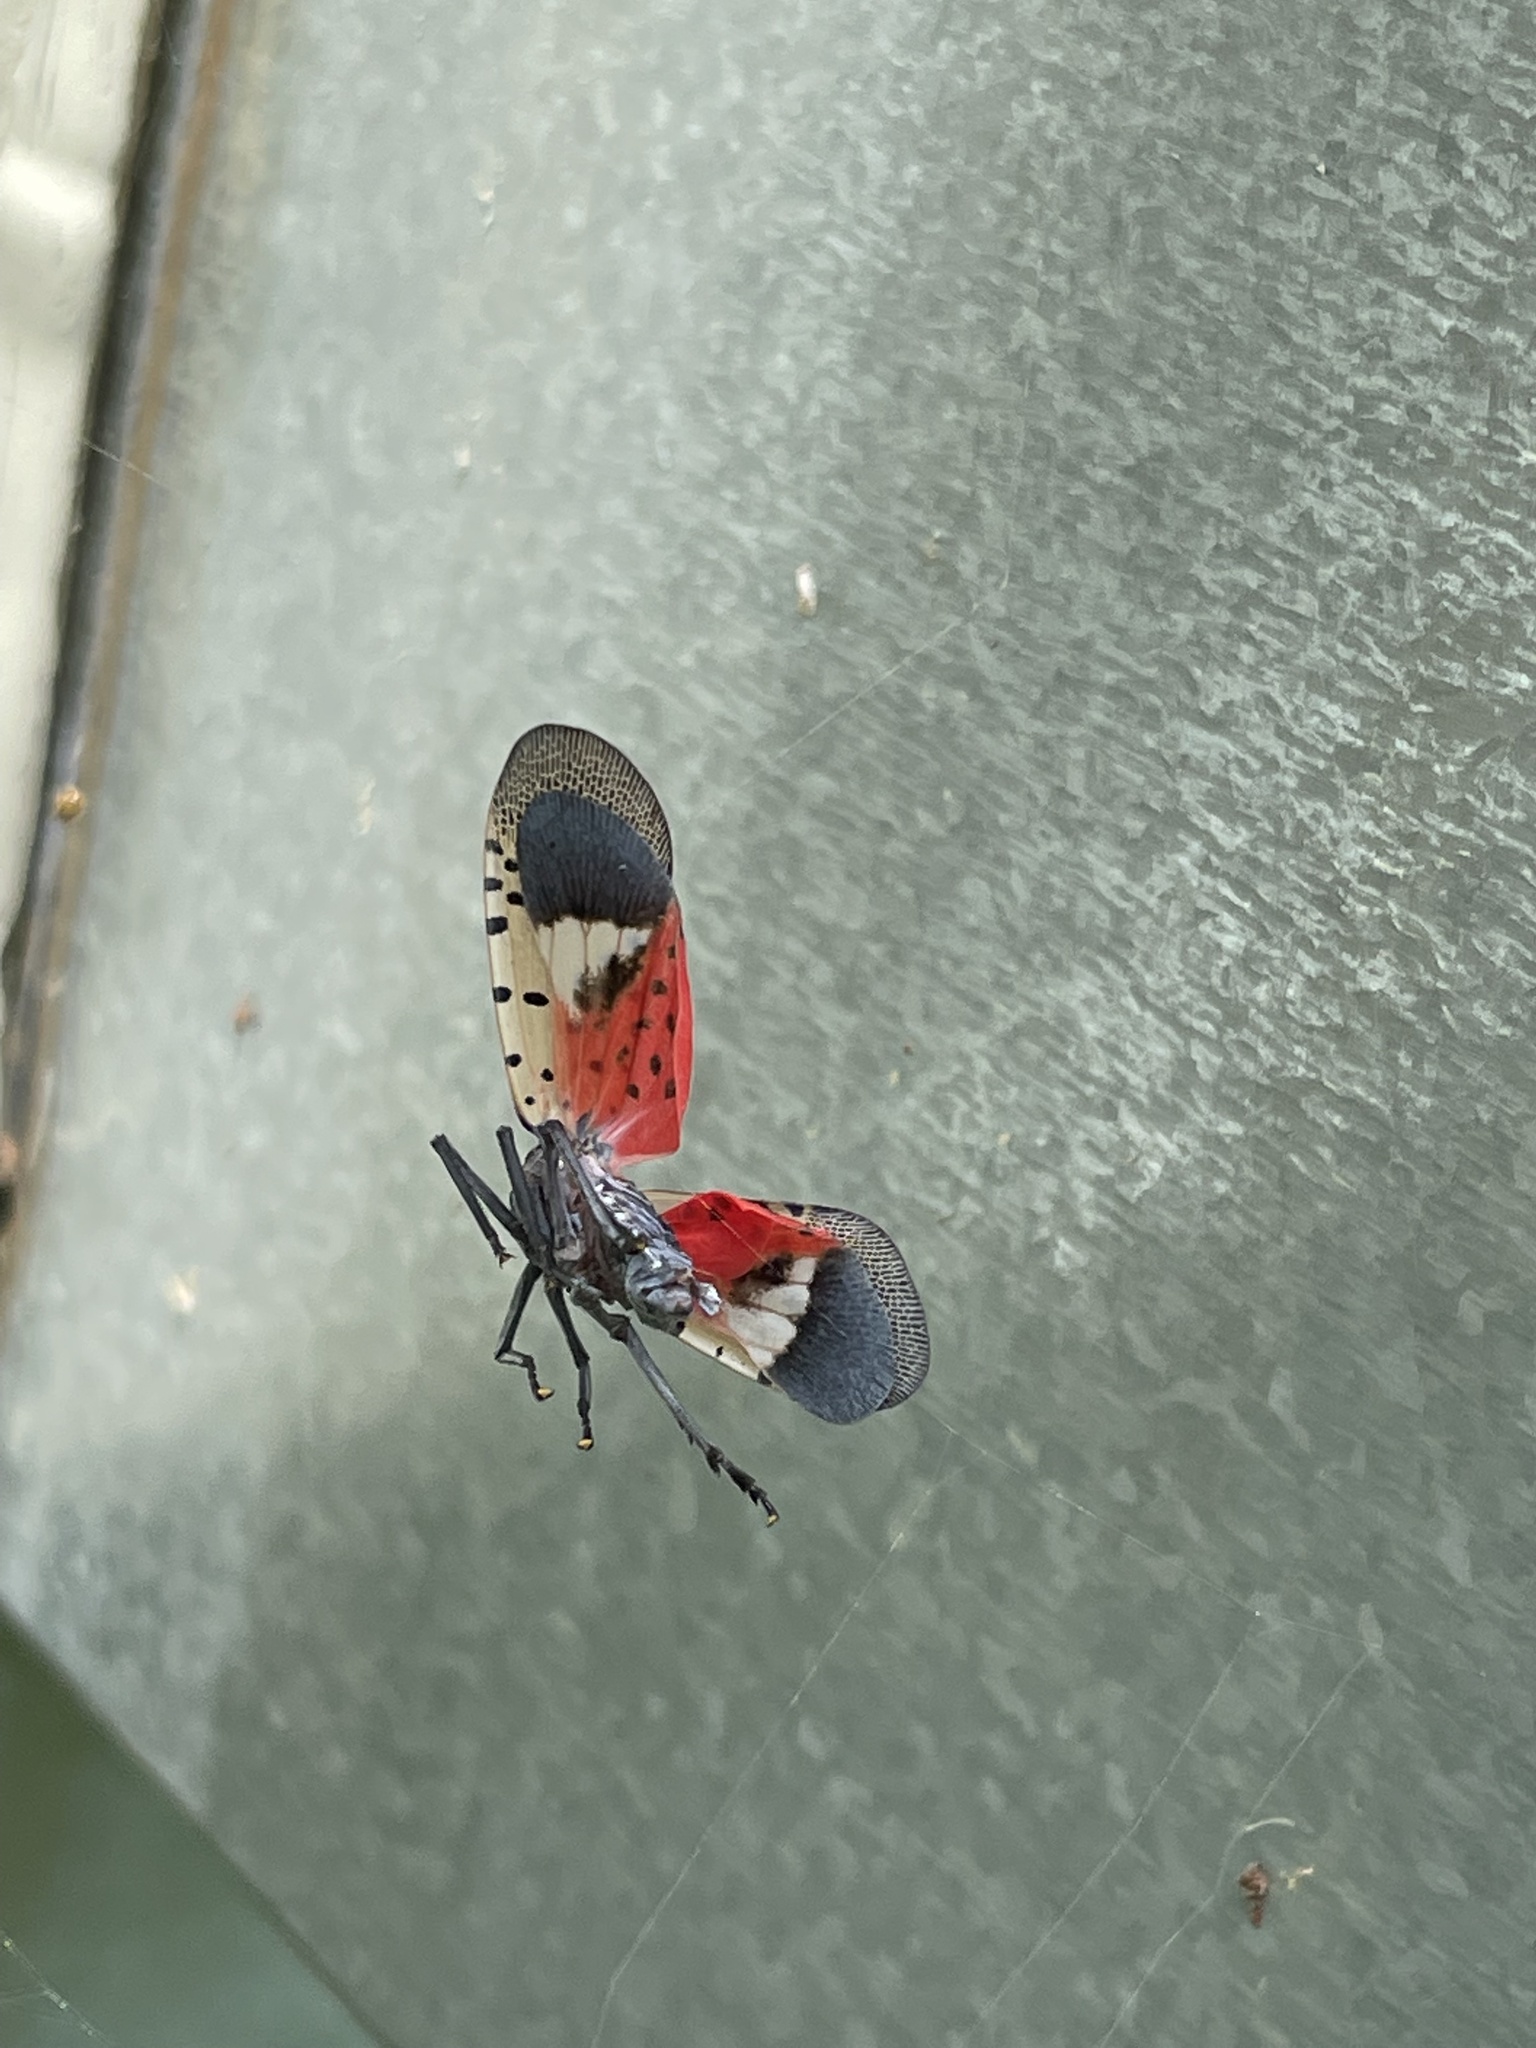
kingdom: Animalia
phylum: Arthropoda
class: Insecta
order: Hemiptera
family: Fulgoridae
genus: Lycorma
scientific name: Lycorma delicatula
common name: Spotted lanternfly
